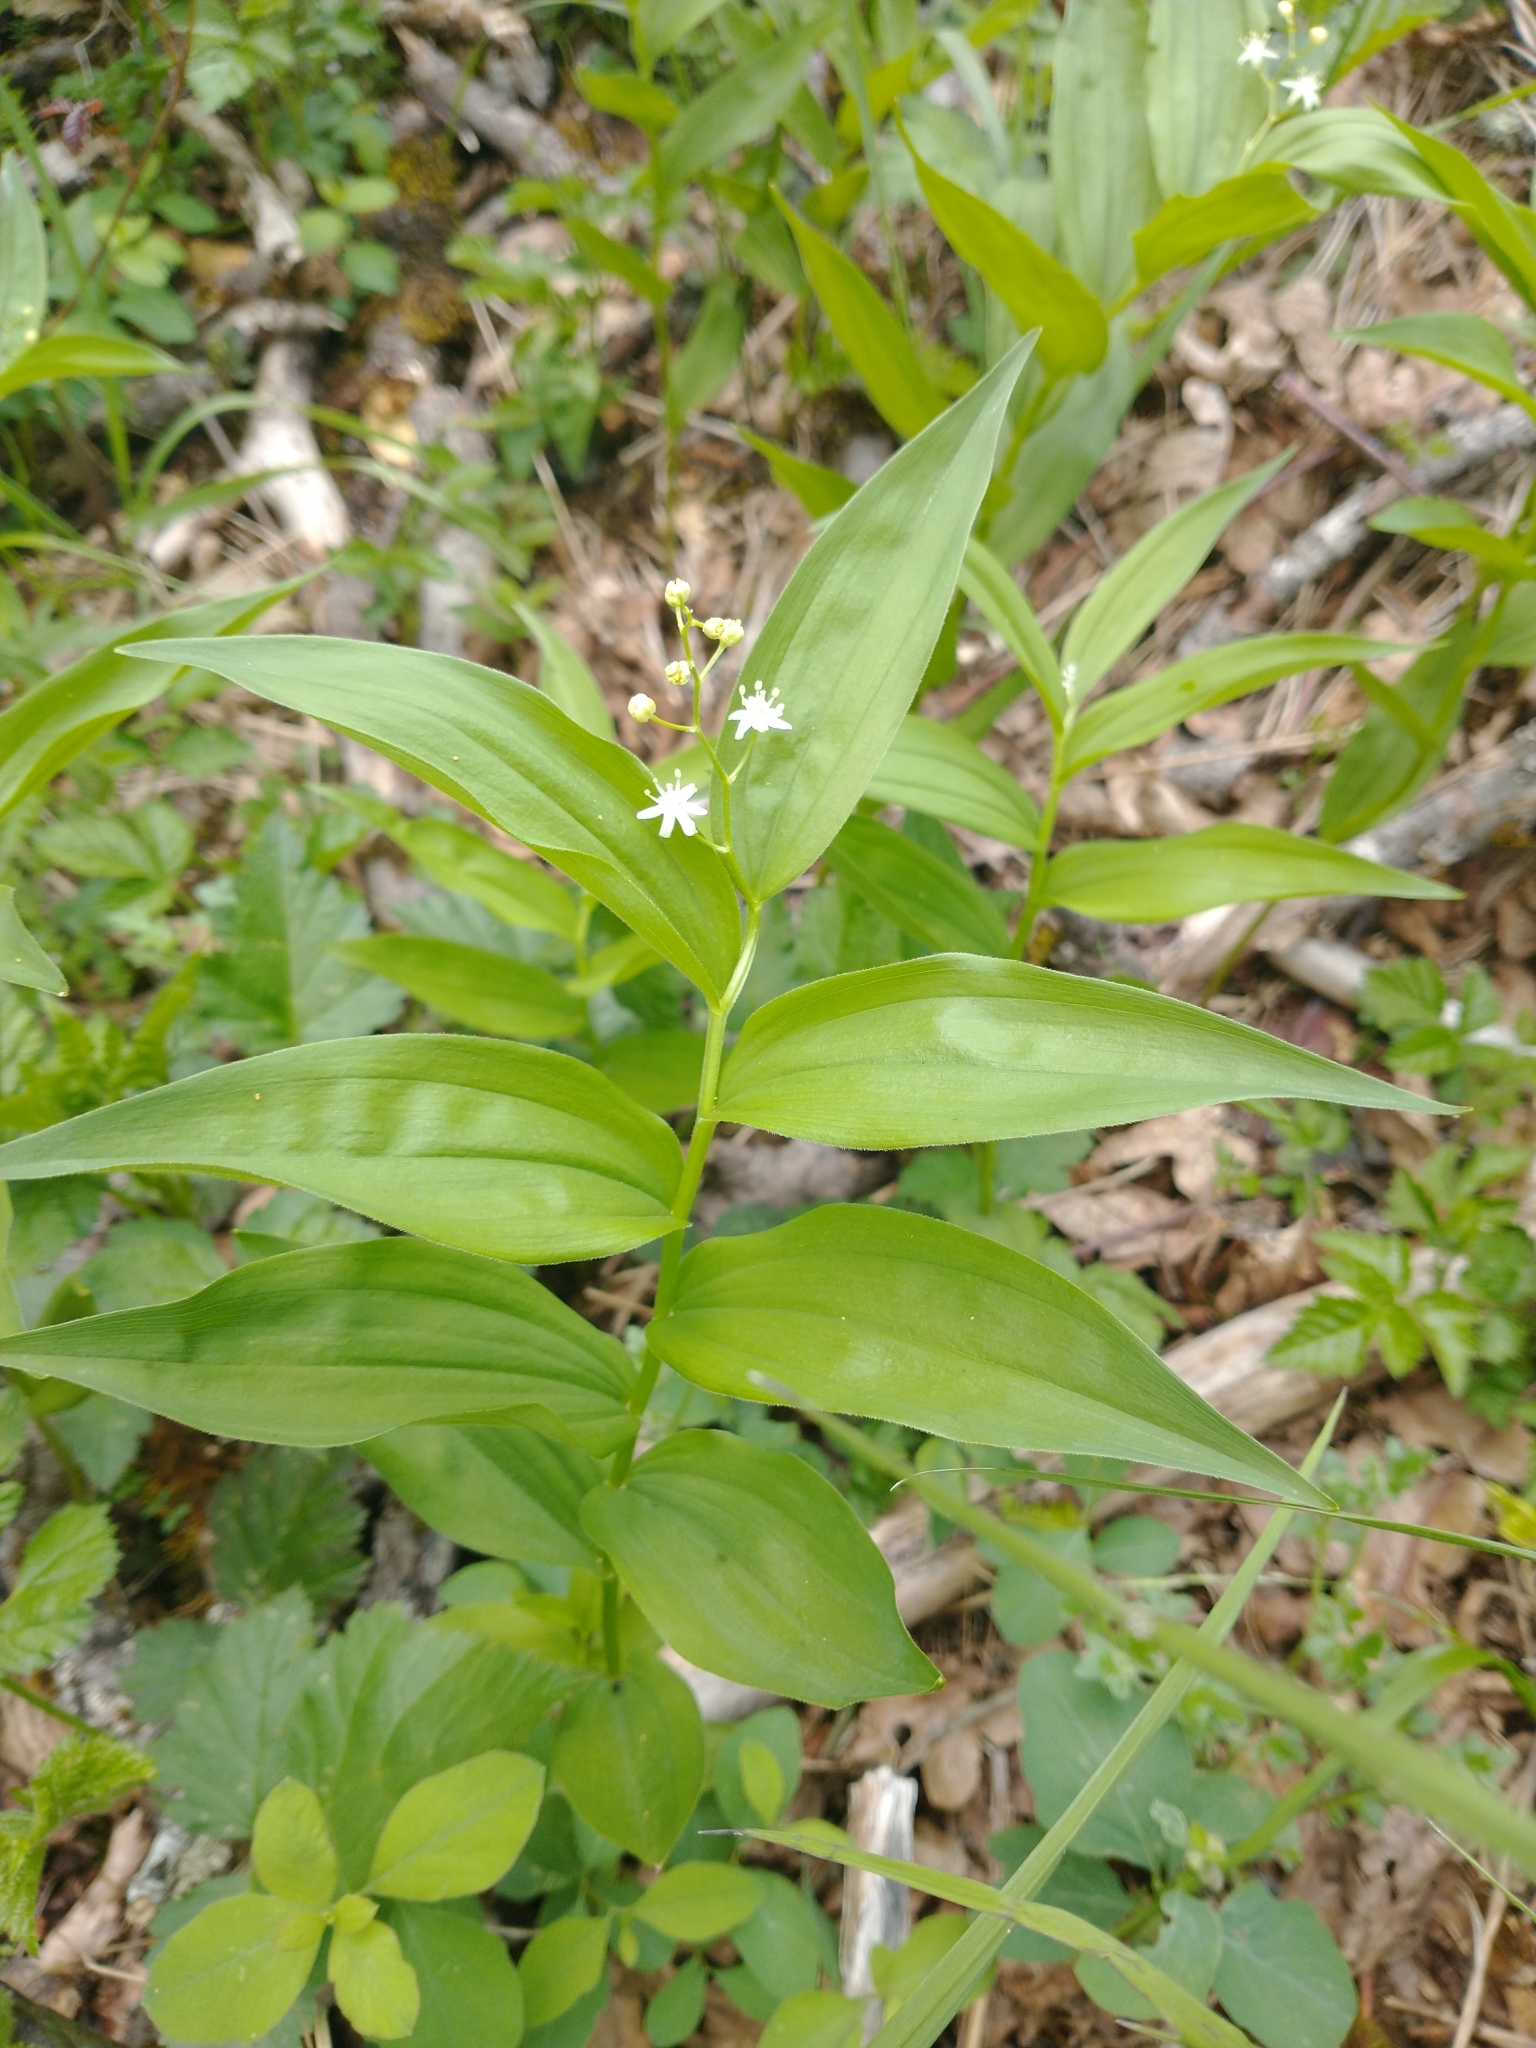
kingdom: Plantae
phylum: Tracheophyta
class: Liliopsida
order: Asparagales
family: Asparagaceae
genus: Maianthemum
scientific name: Maianthemum stellatum
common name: Little false solomon's seal
